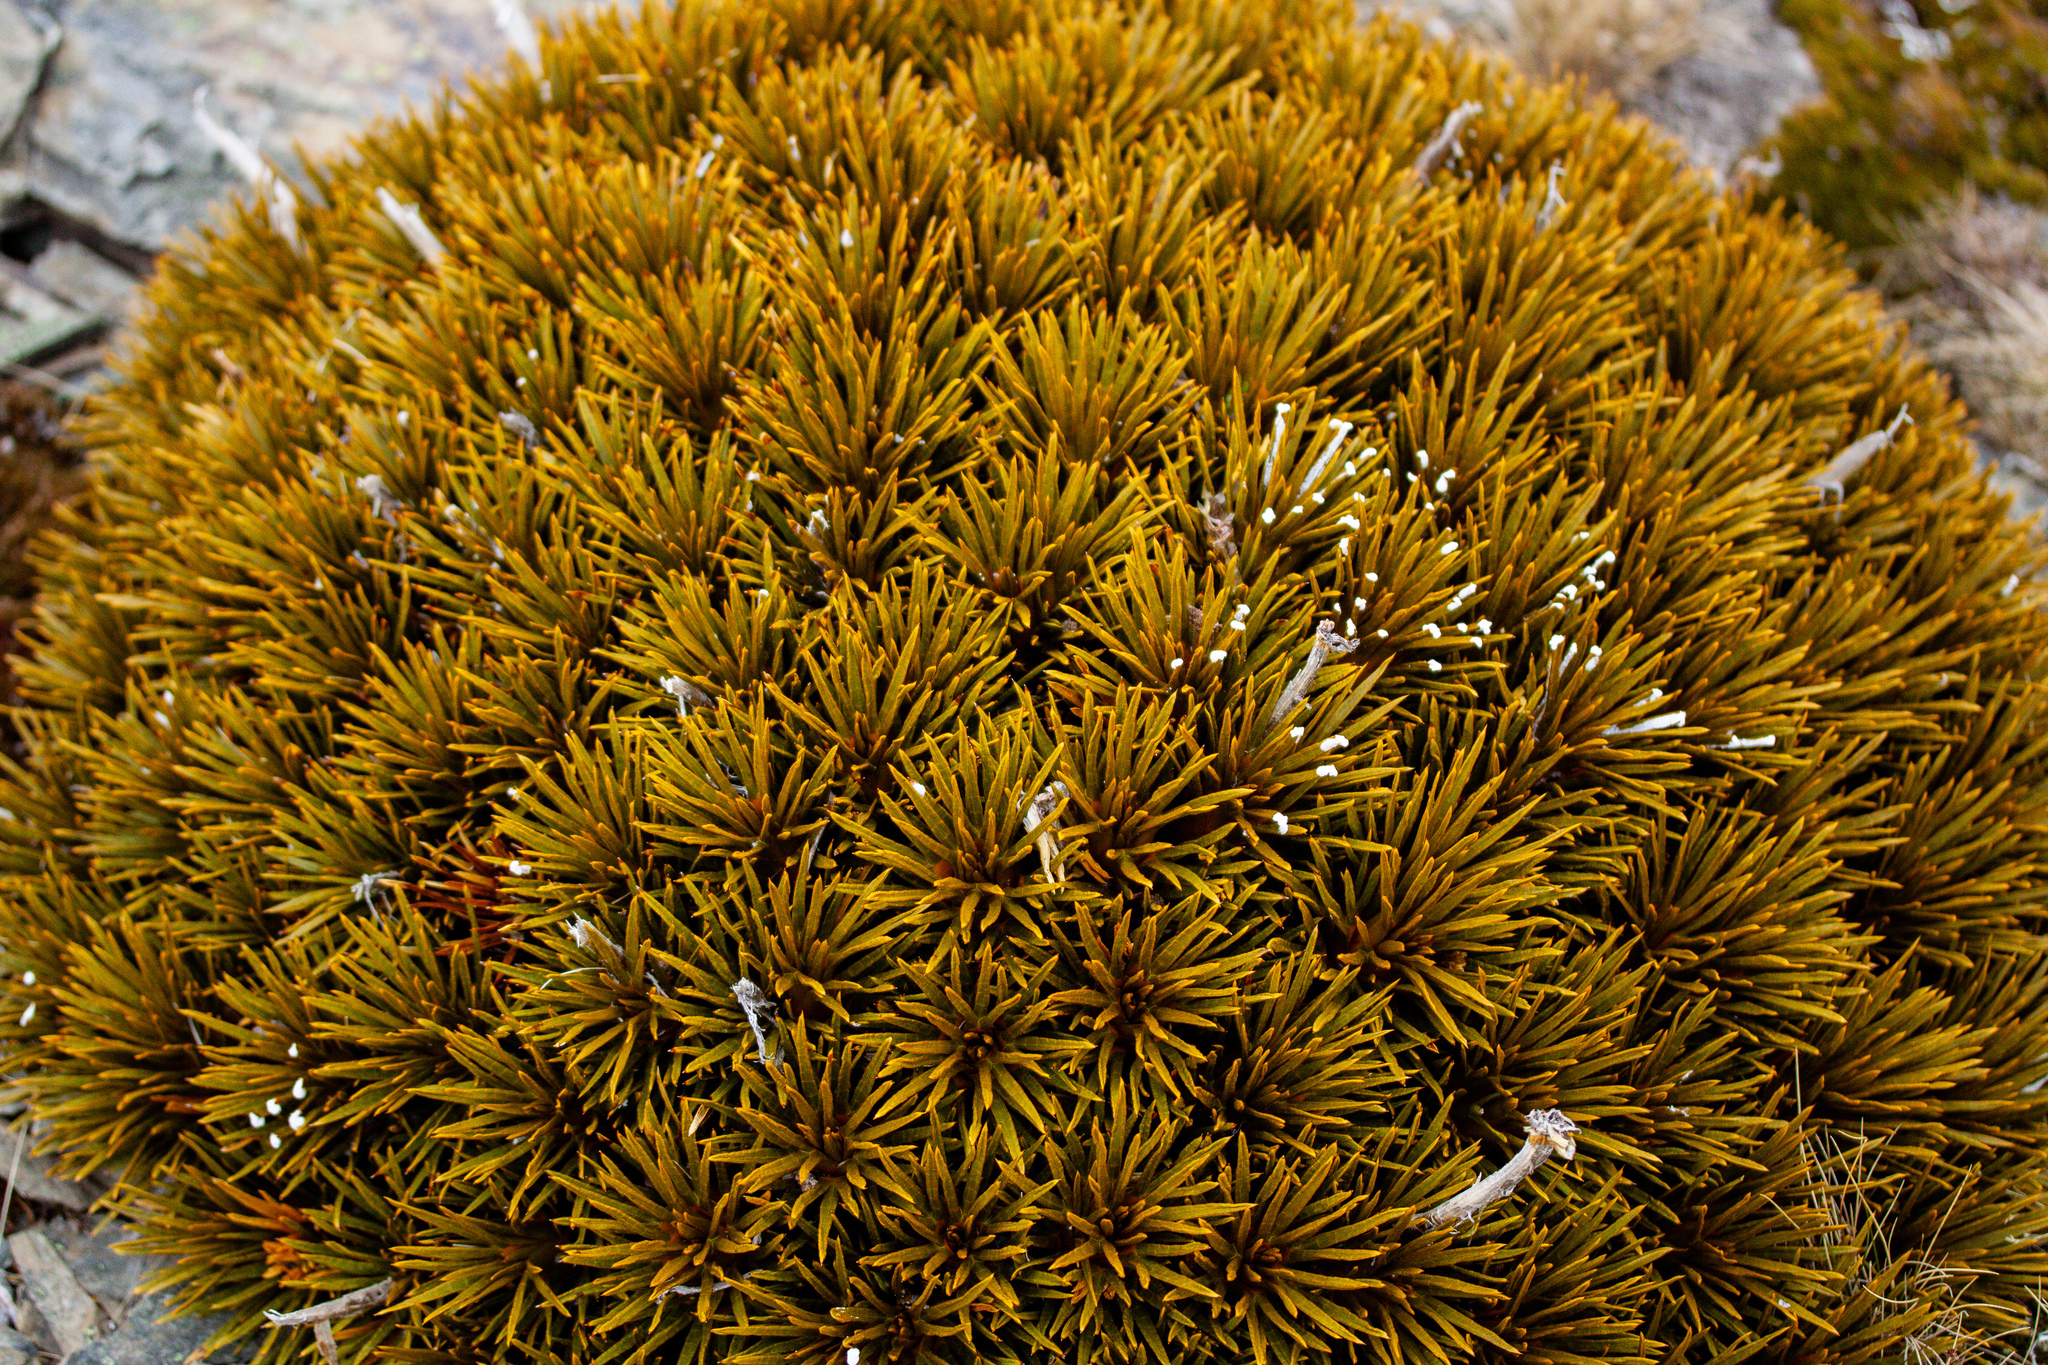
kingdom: Plantae
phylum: Tracheophyta
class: Magnoliopsida
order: Apiales
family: Apiaceae
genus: Aciphylla
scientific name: Aciphylla dobsonii
